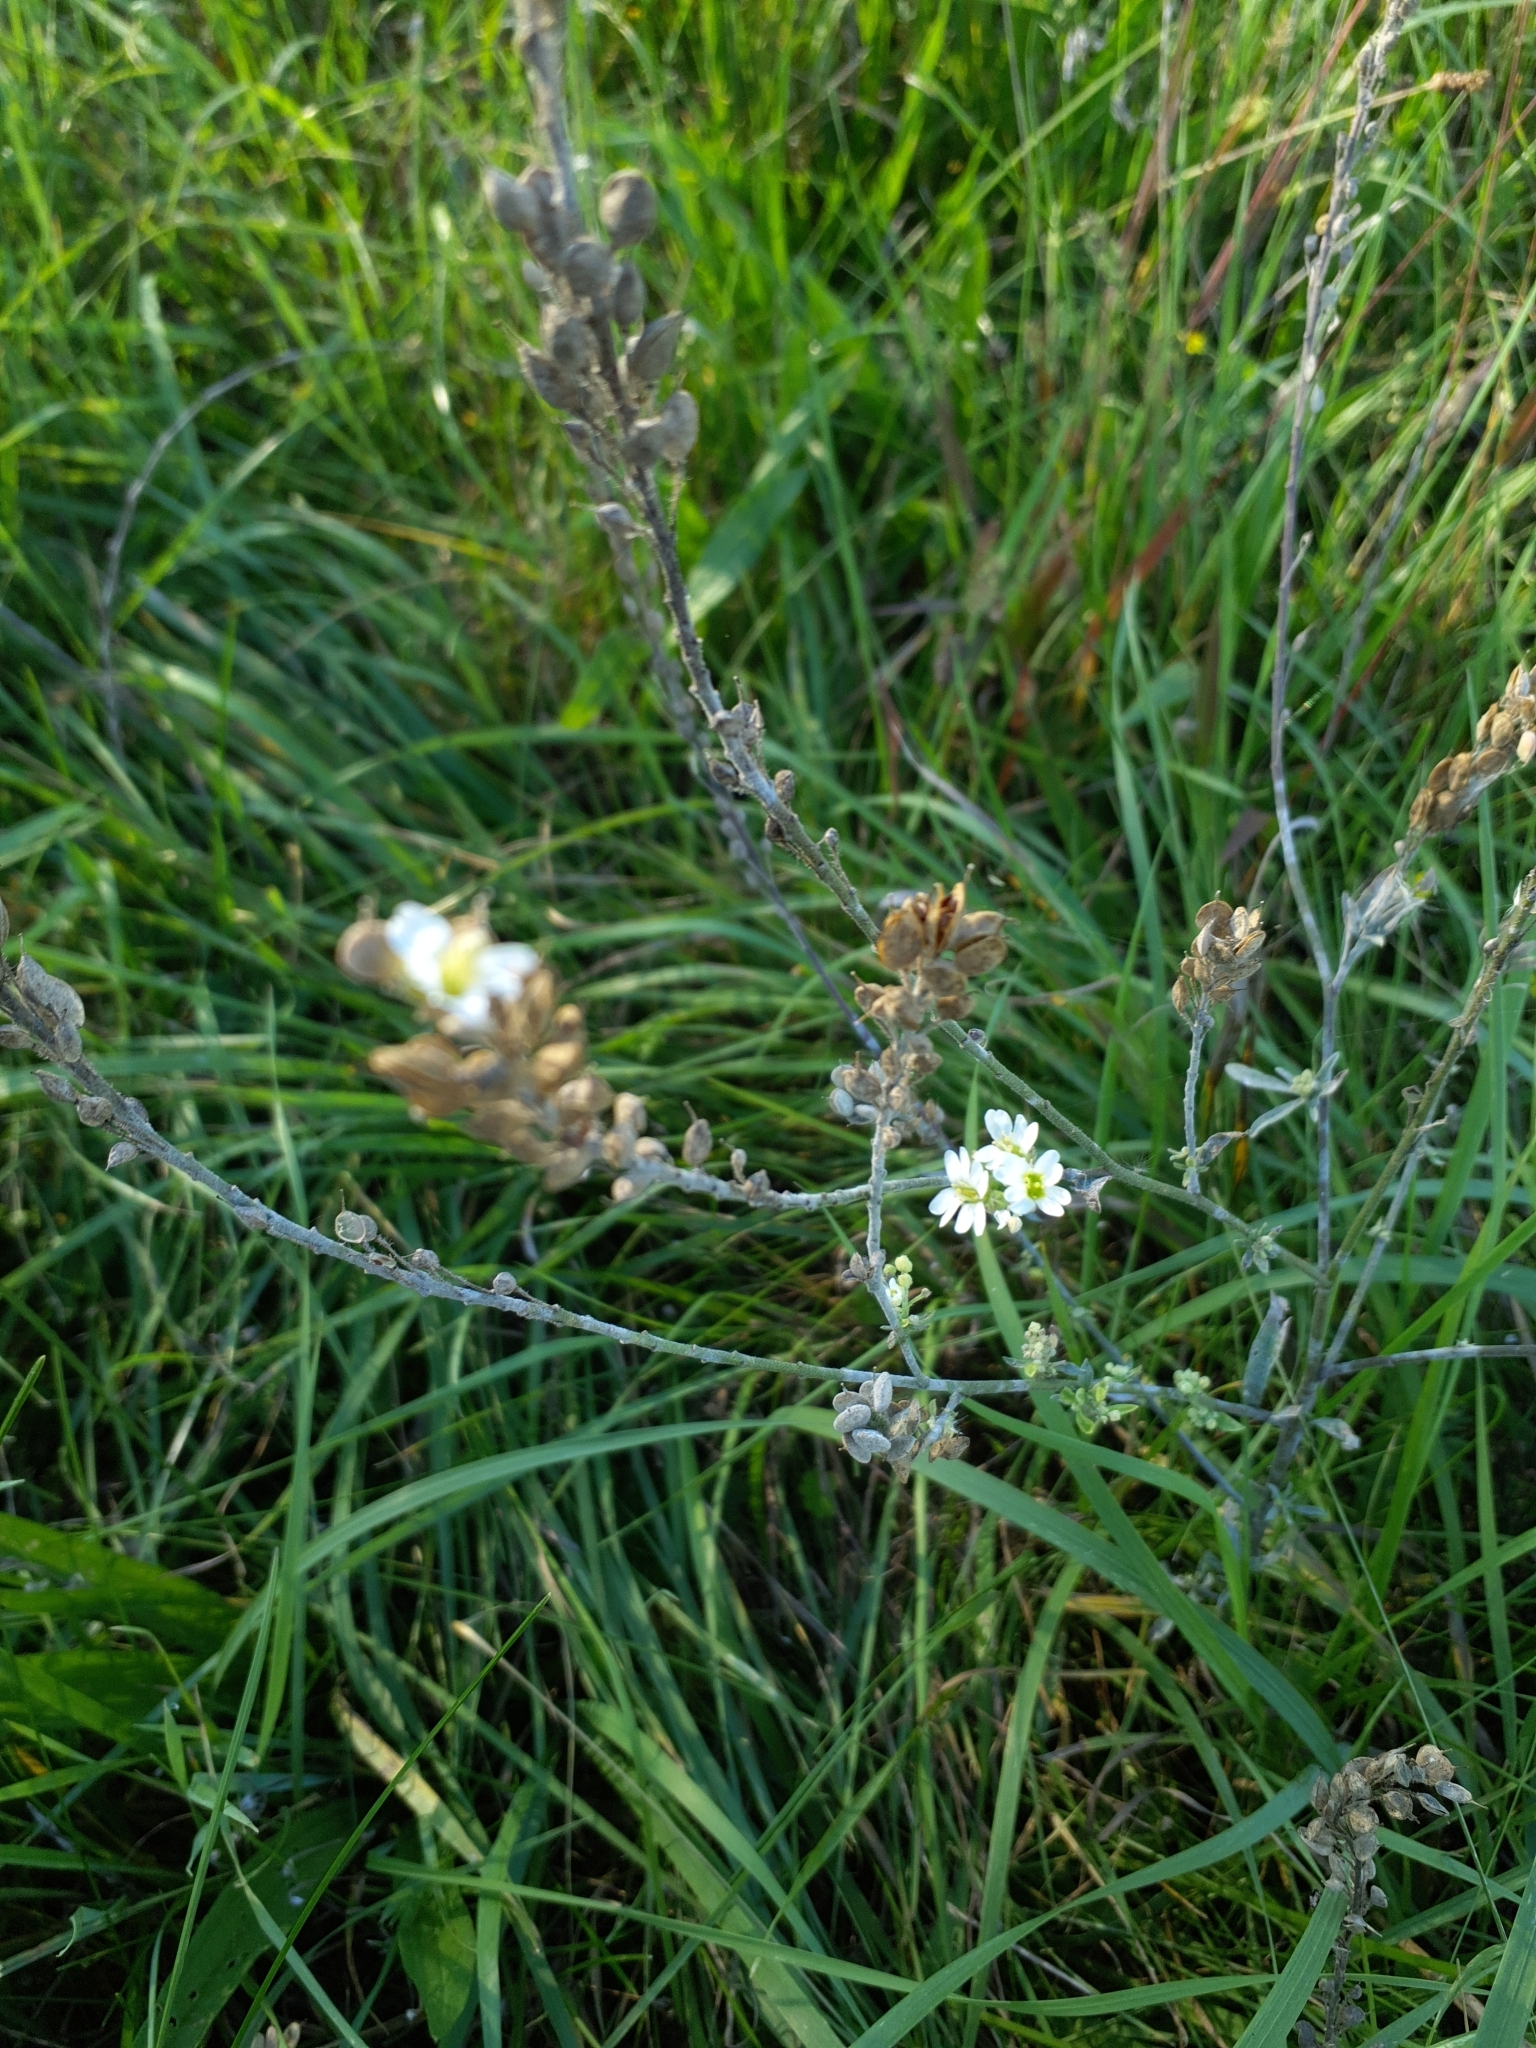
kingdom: Plantae
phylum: Tracheophyta
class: Magnoliopsida
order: Brassicales
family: Brassicaceae
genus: Berteroa
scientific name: Berteroa incana
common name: Hoary alison
